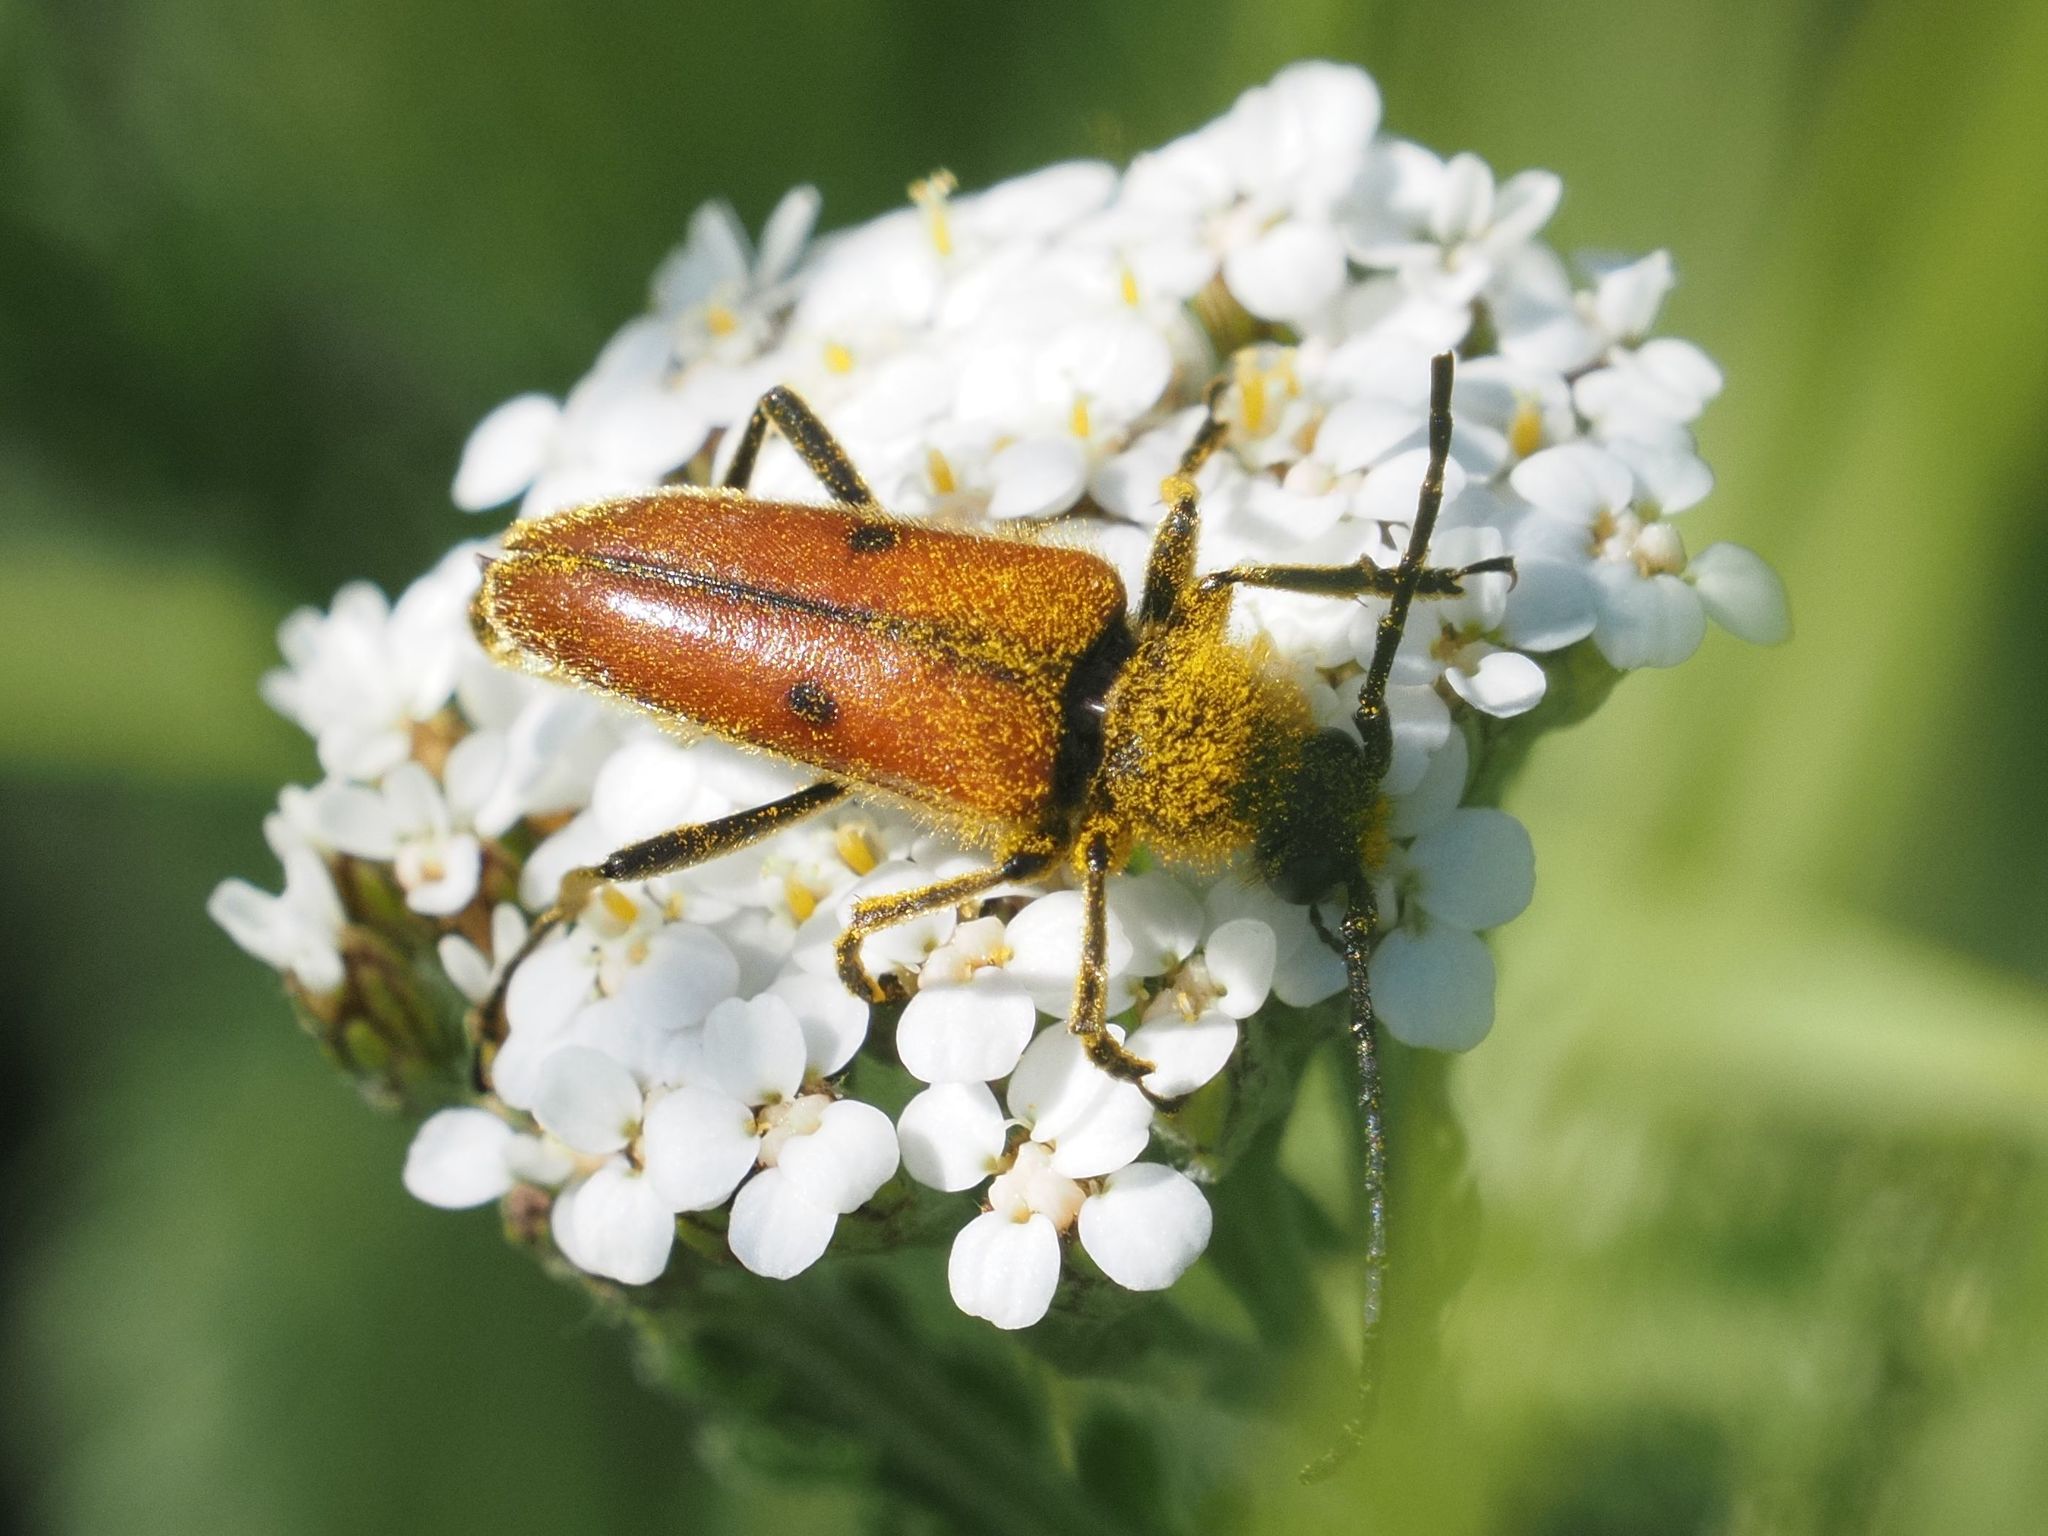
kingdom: Animalia
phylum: Arthropoda
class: Insecta
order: Coleoptera
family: Cerambycidae
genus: Vadonia
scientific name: Vadonia unipunctata
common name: Long-horned beetle
